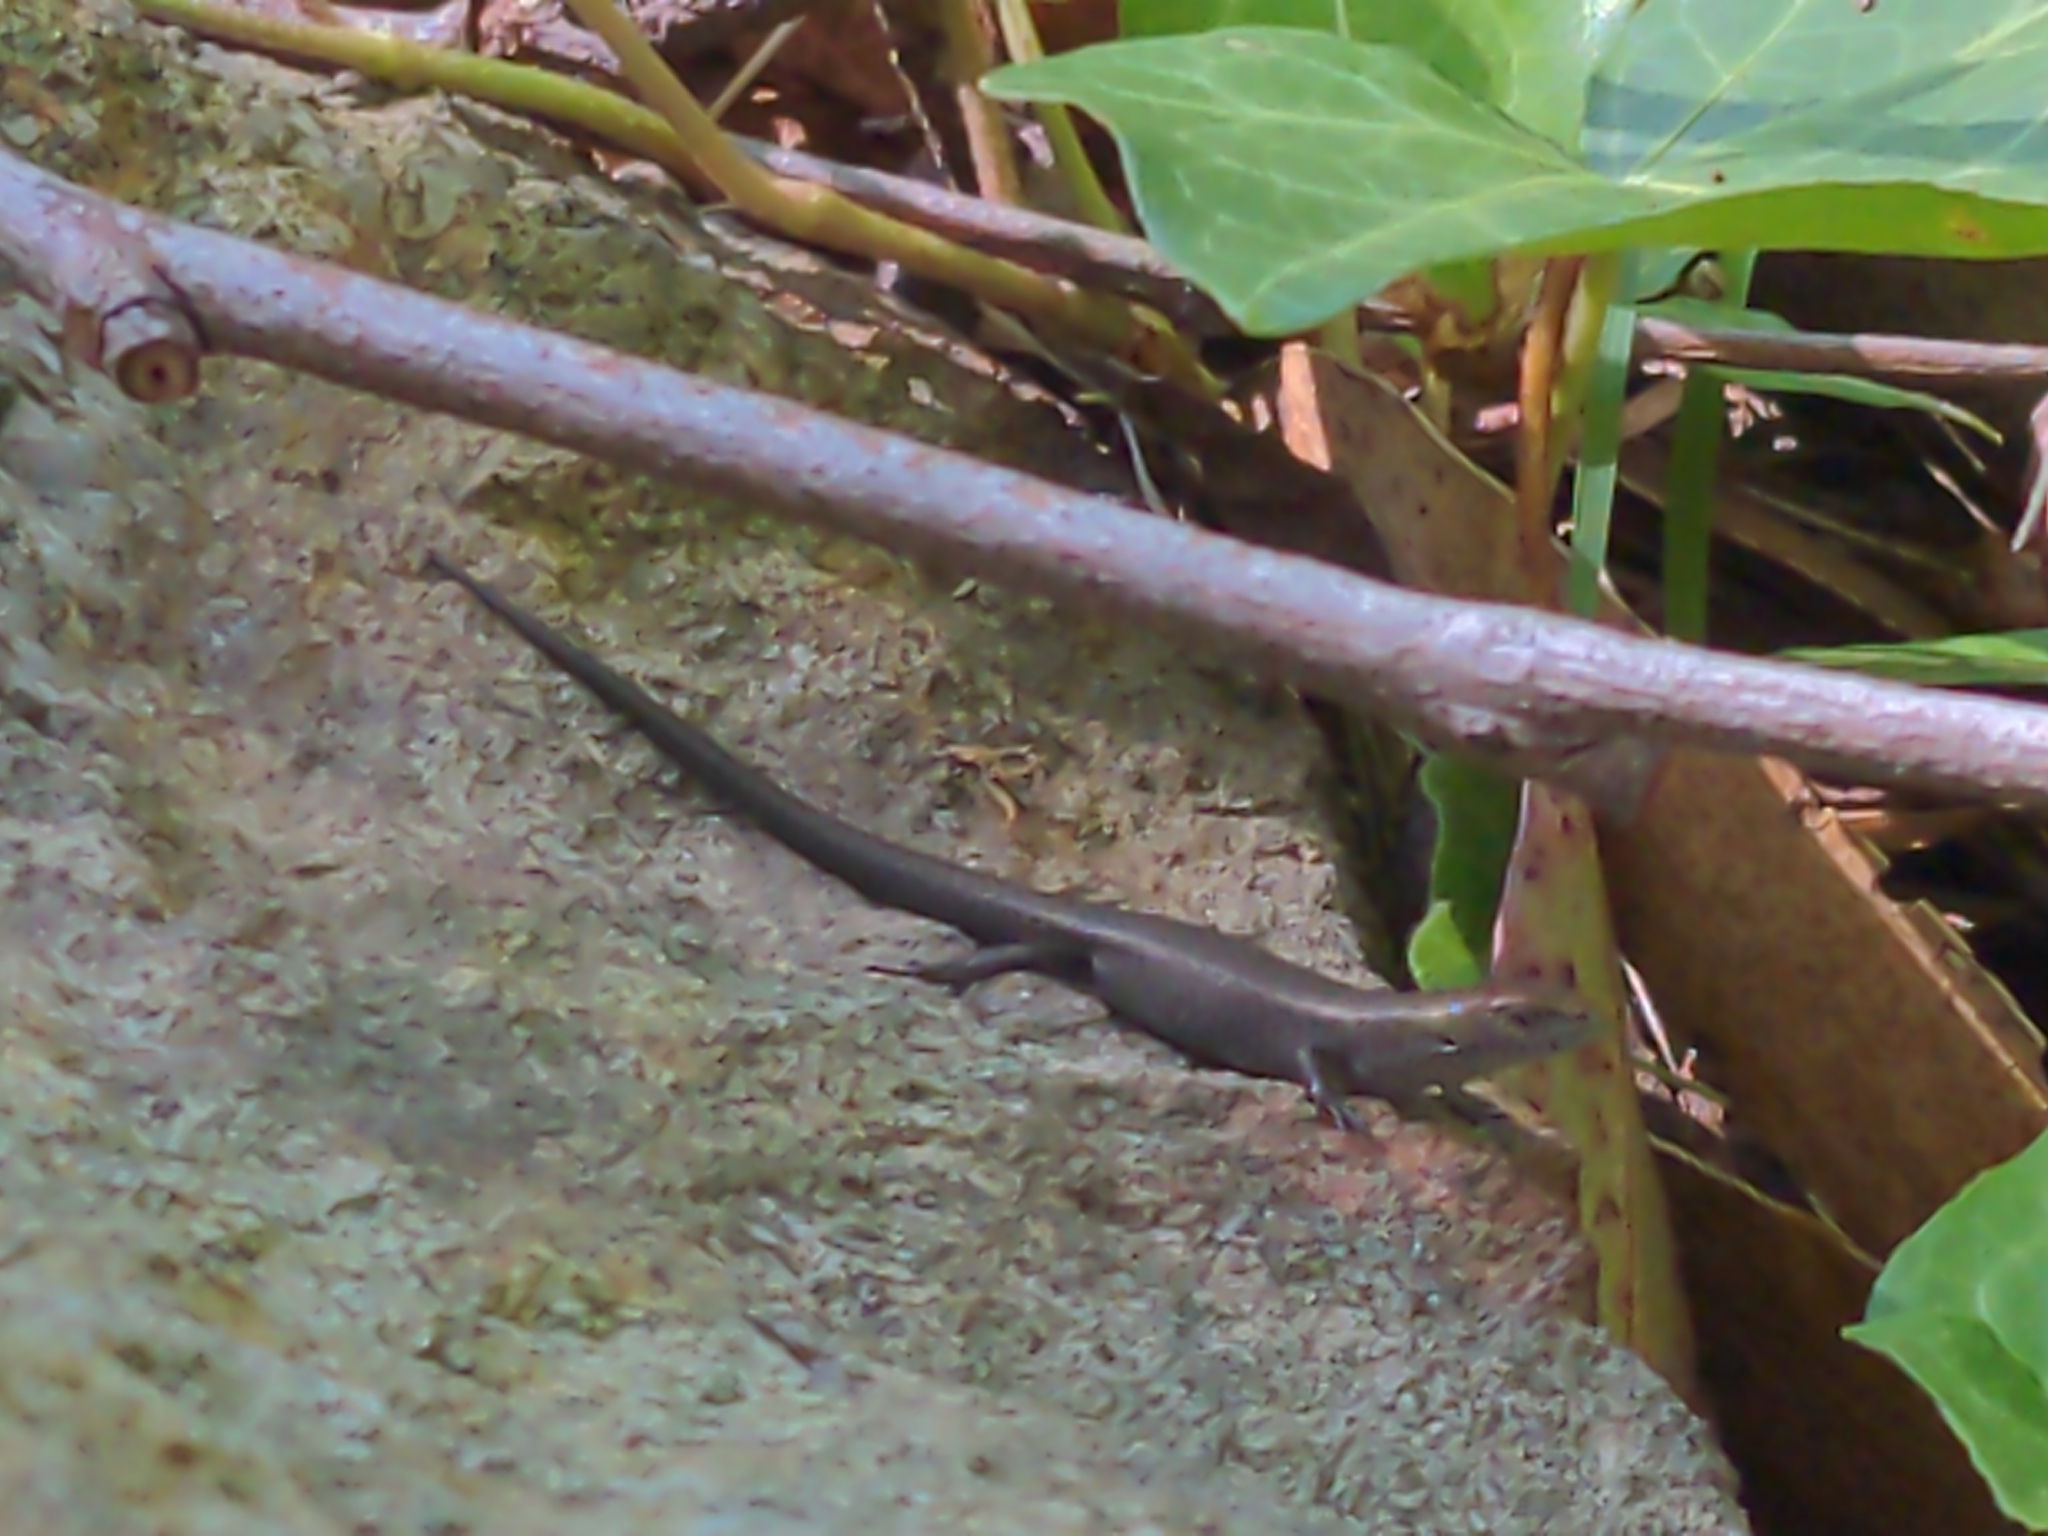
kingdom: Animalia
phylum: Chordata
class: Squamata
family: Scincidae
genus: Lampropholis
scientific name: Lampropholis guichenoti
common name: Garden skink
